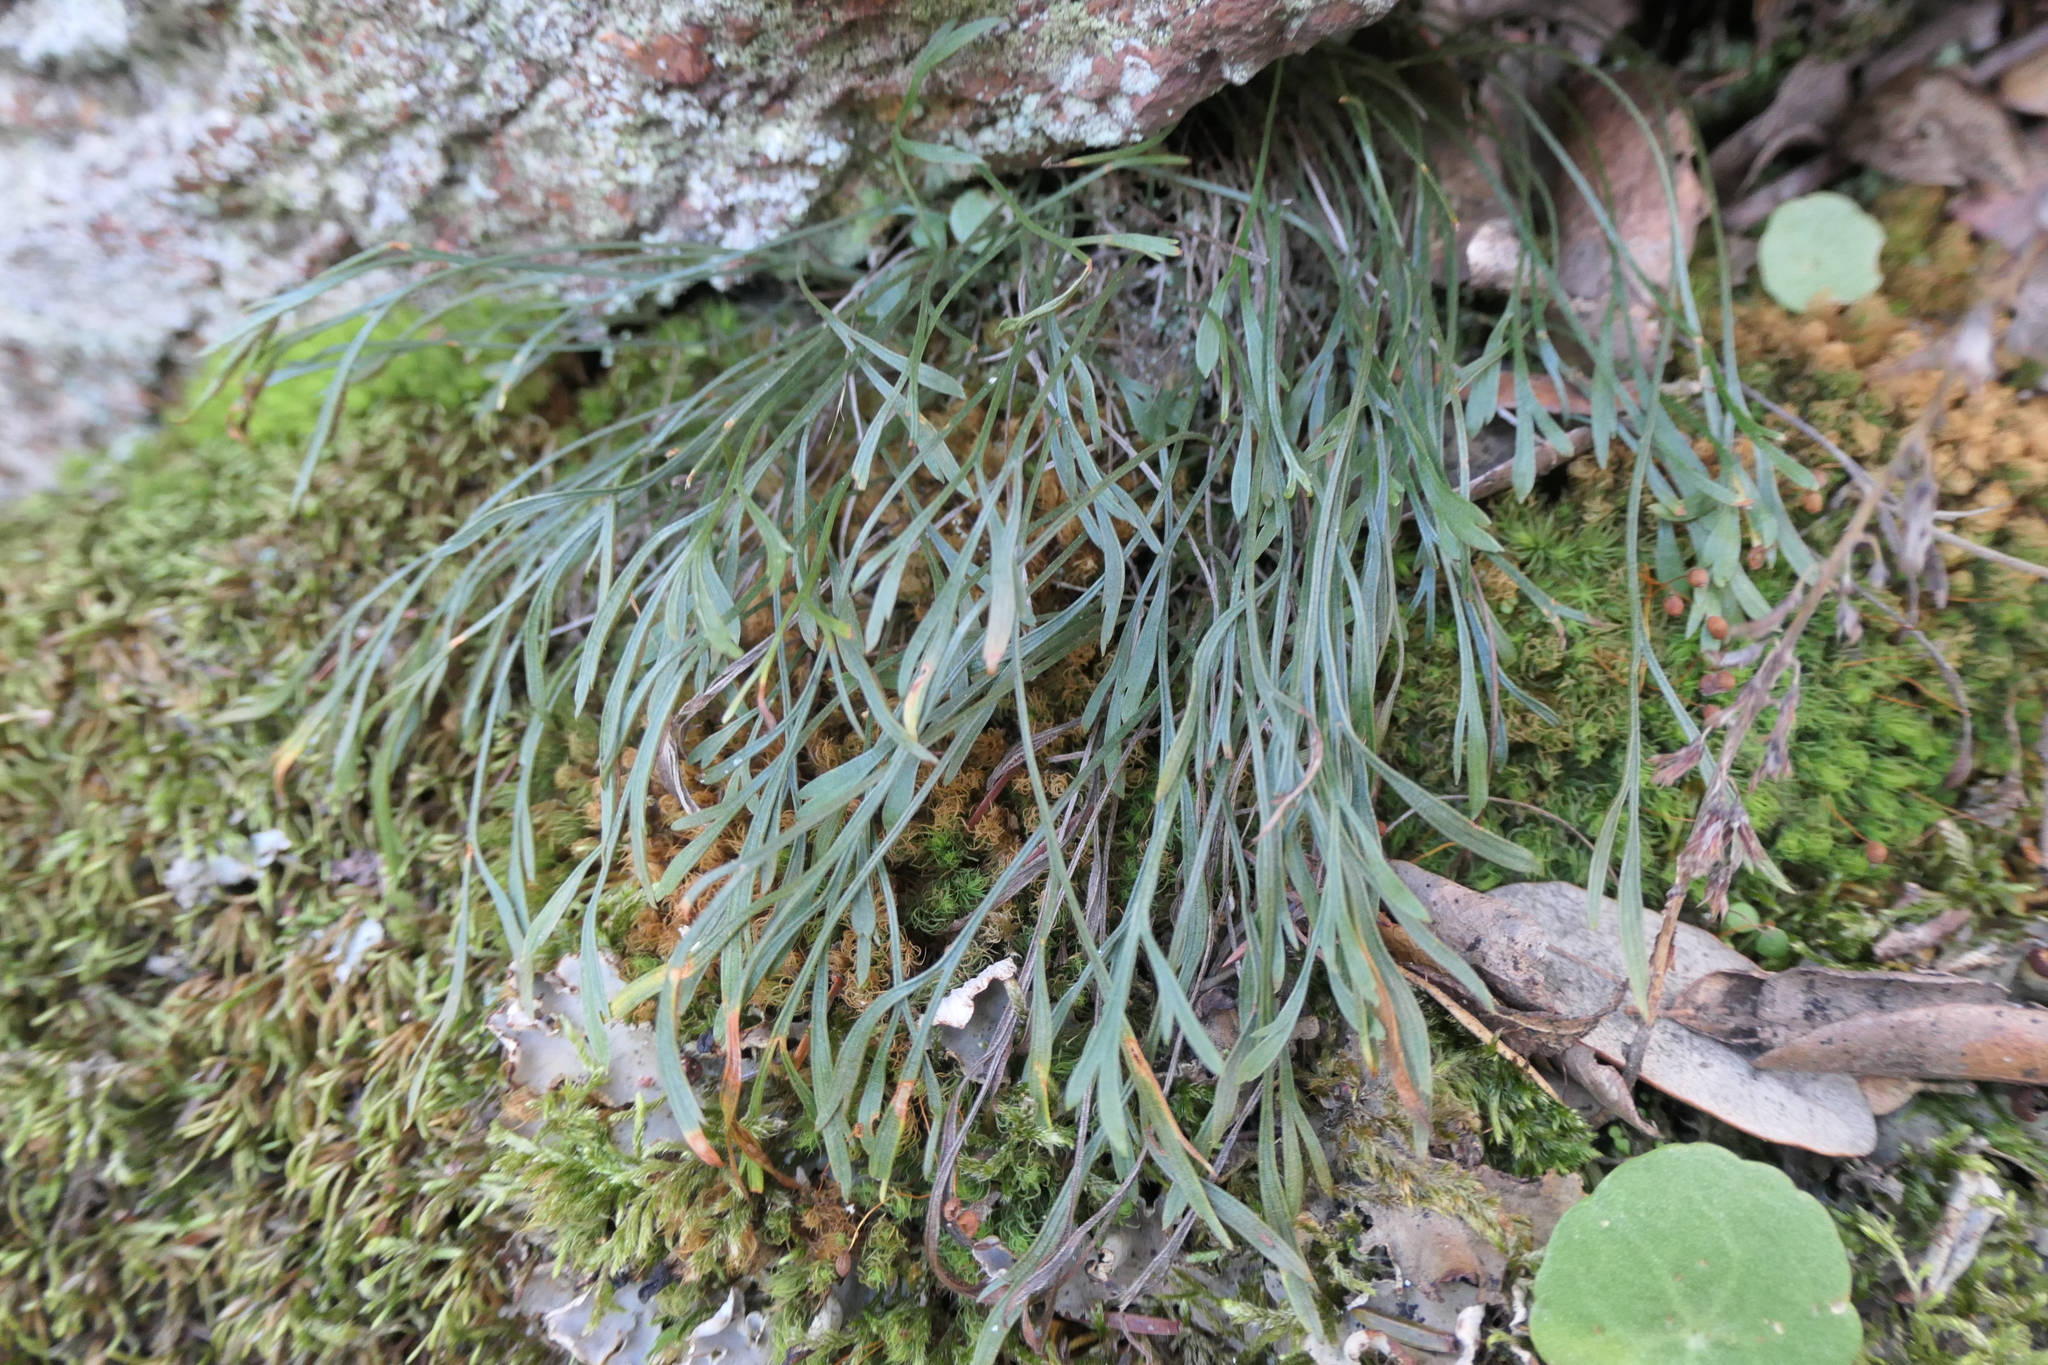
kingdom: Plantae
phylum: Tracheophyta
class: Polypodiopsida
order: Polypodiales
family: Aspleniaceae
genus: Asplenium
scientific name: Asplenium septentrionale
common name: Forked spleenwort
